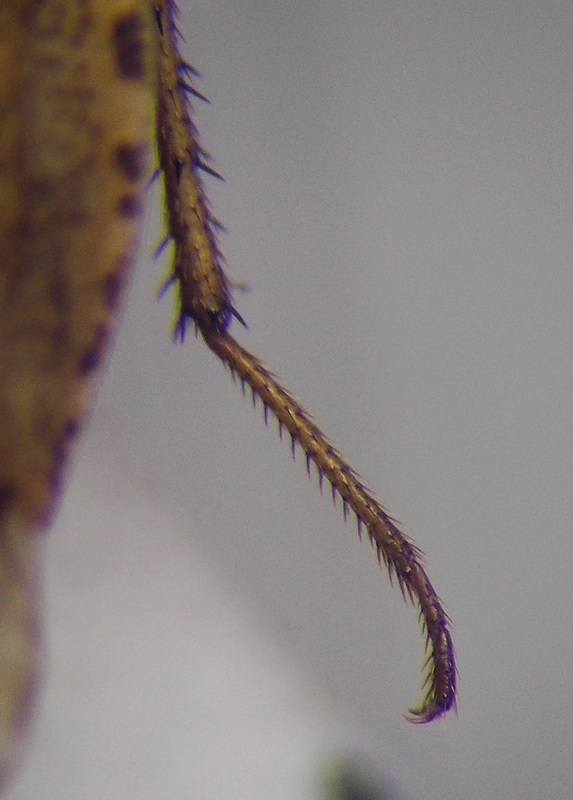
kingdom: Animalia
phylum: Arthropoda
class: Insecta
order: Hemiptera
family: Rhyparochromidae
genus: Emblethis
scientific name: Emblethis ciliatus
